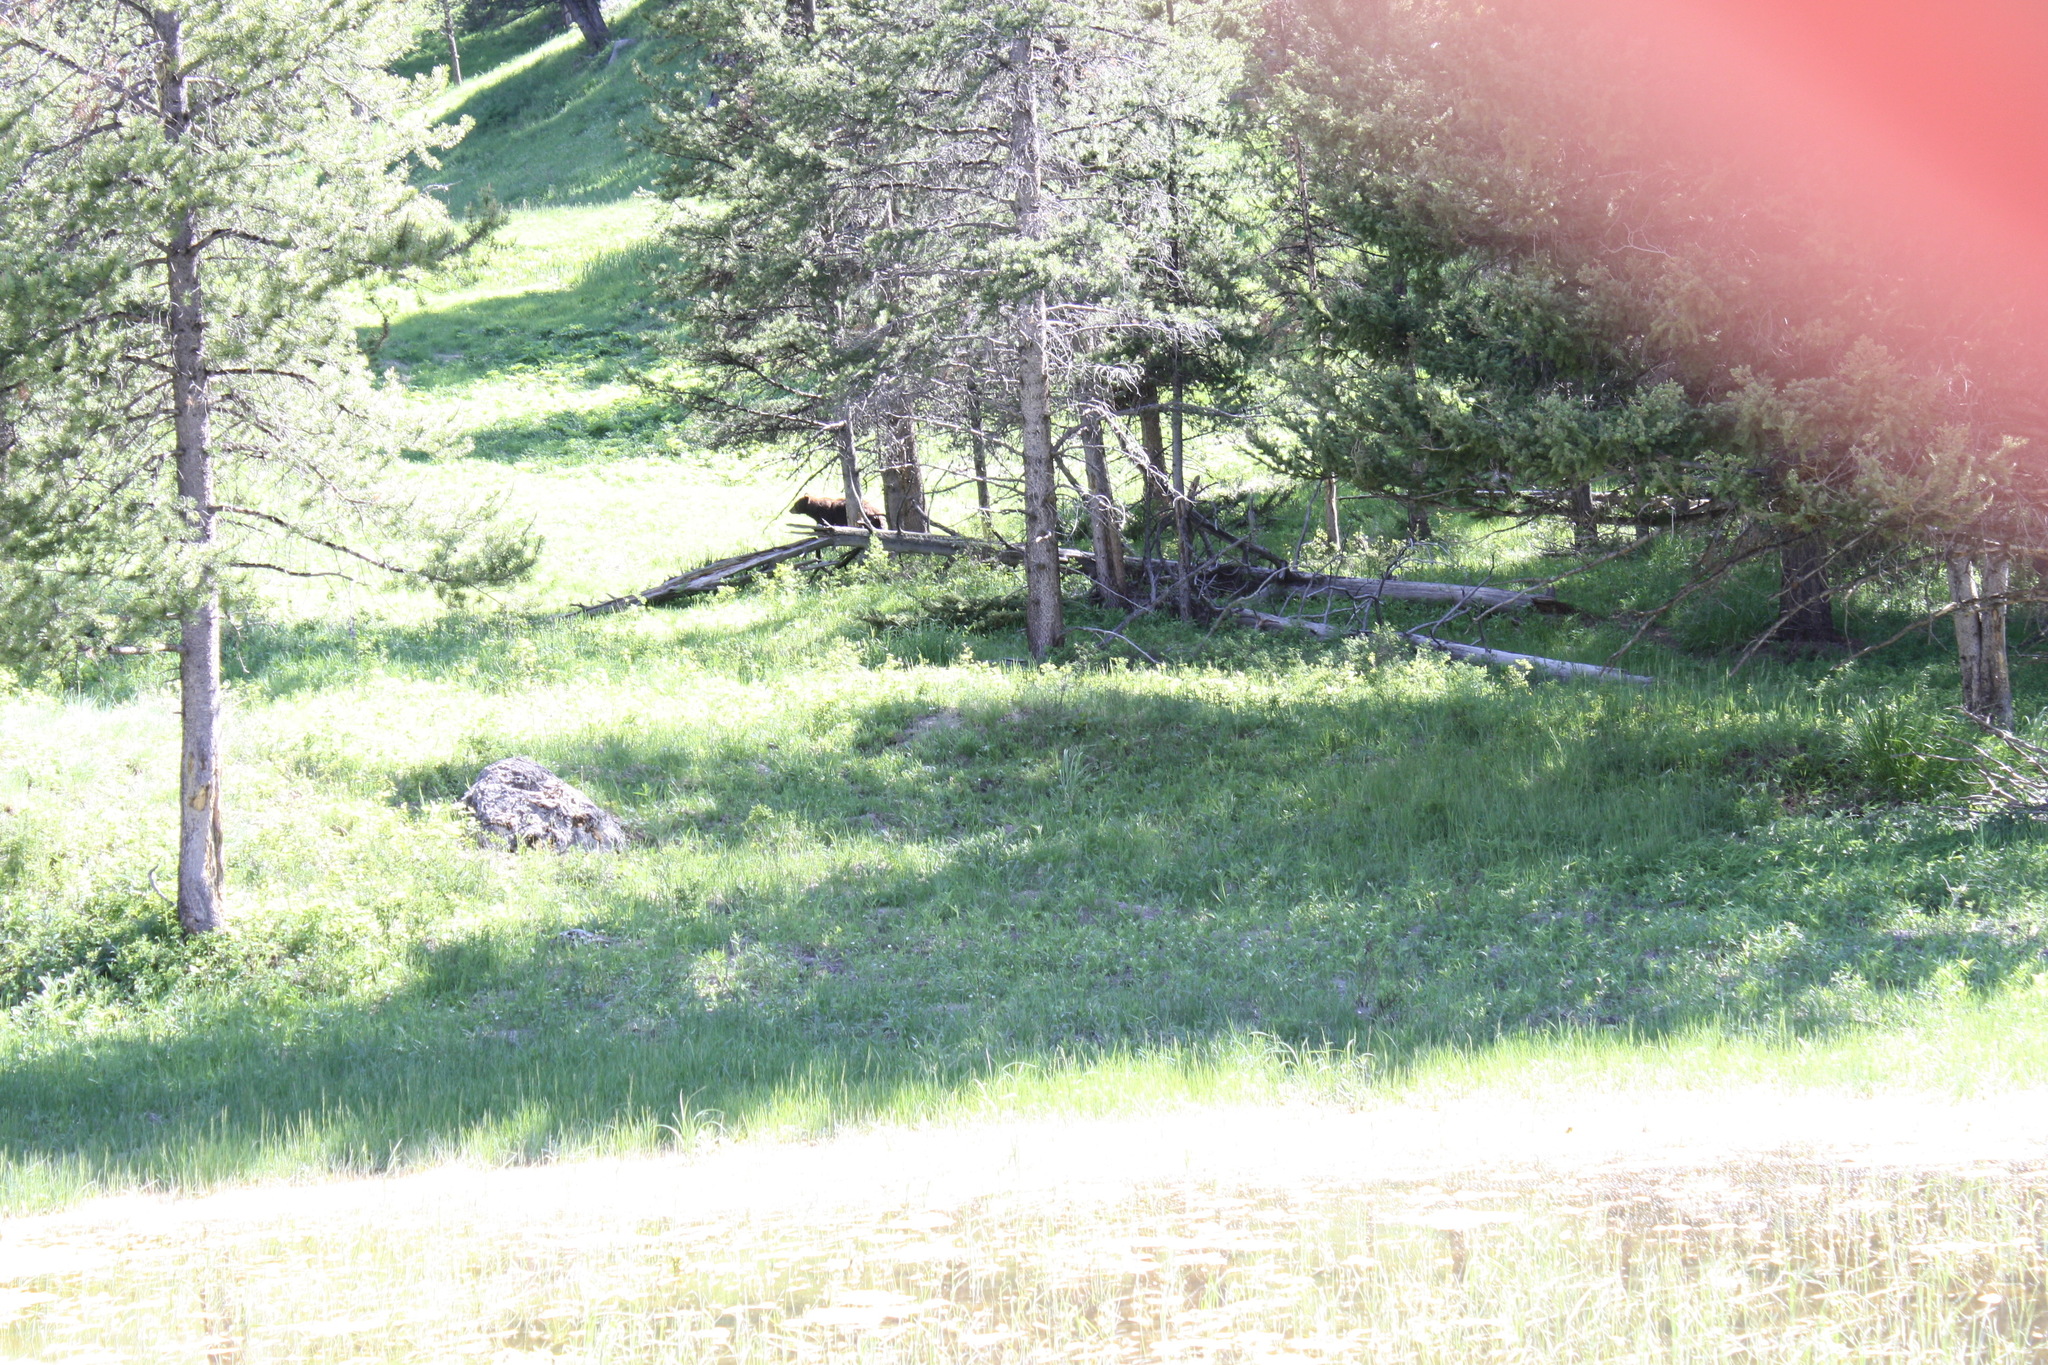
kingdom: Animalia
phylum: Chordata
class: Mammalia
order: Carnivora
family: Ursidae
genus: Ursus
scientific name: Ursus americanus
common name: American black bear
